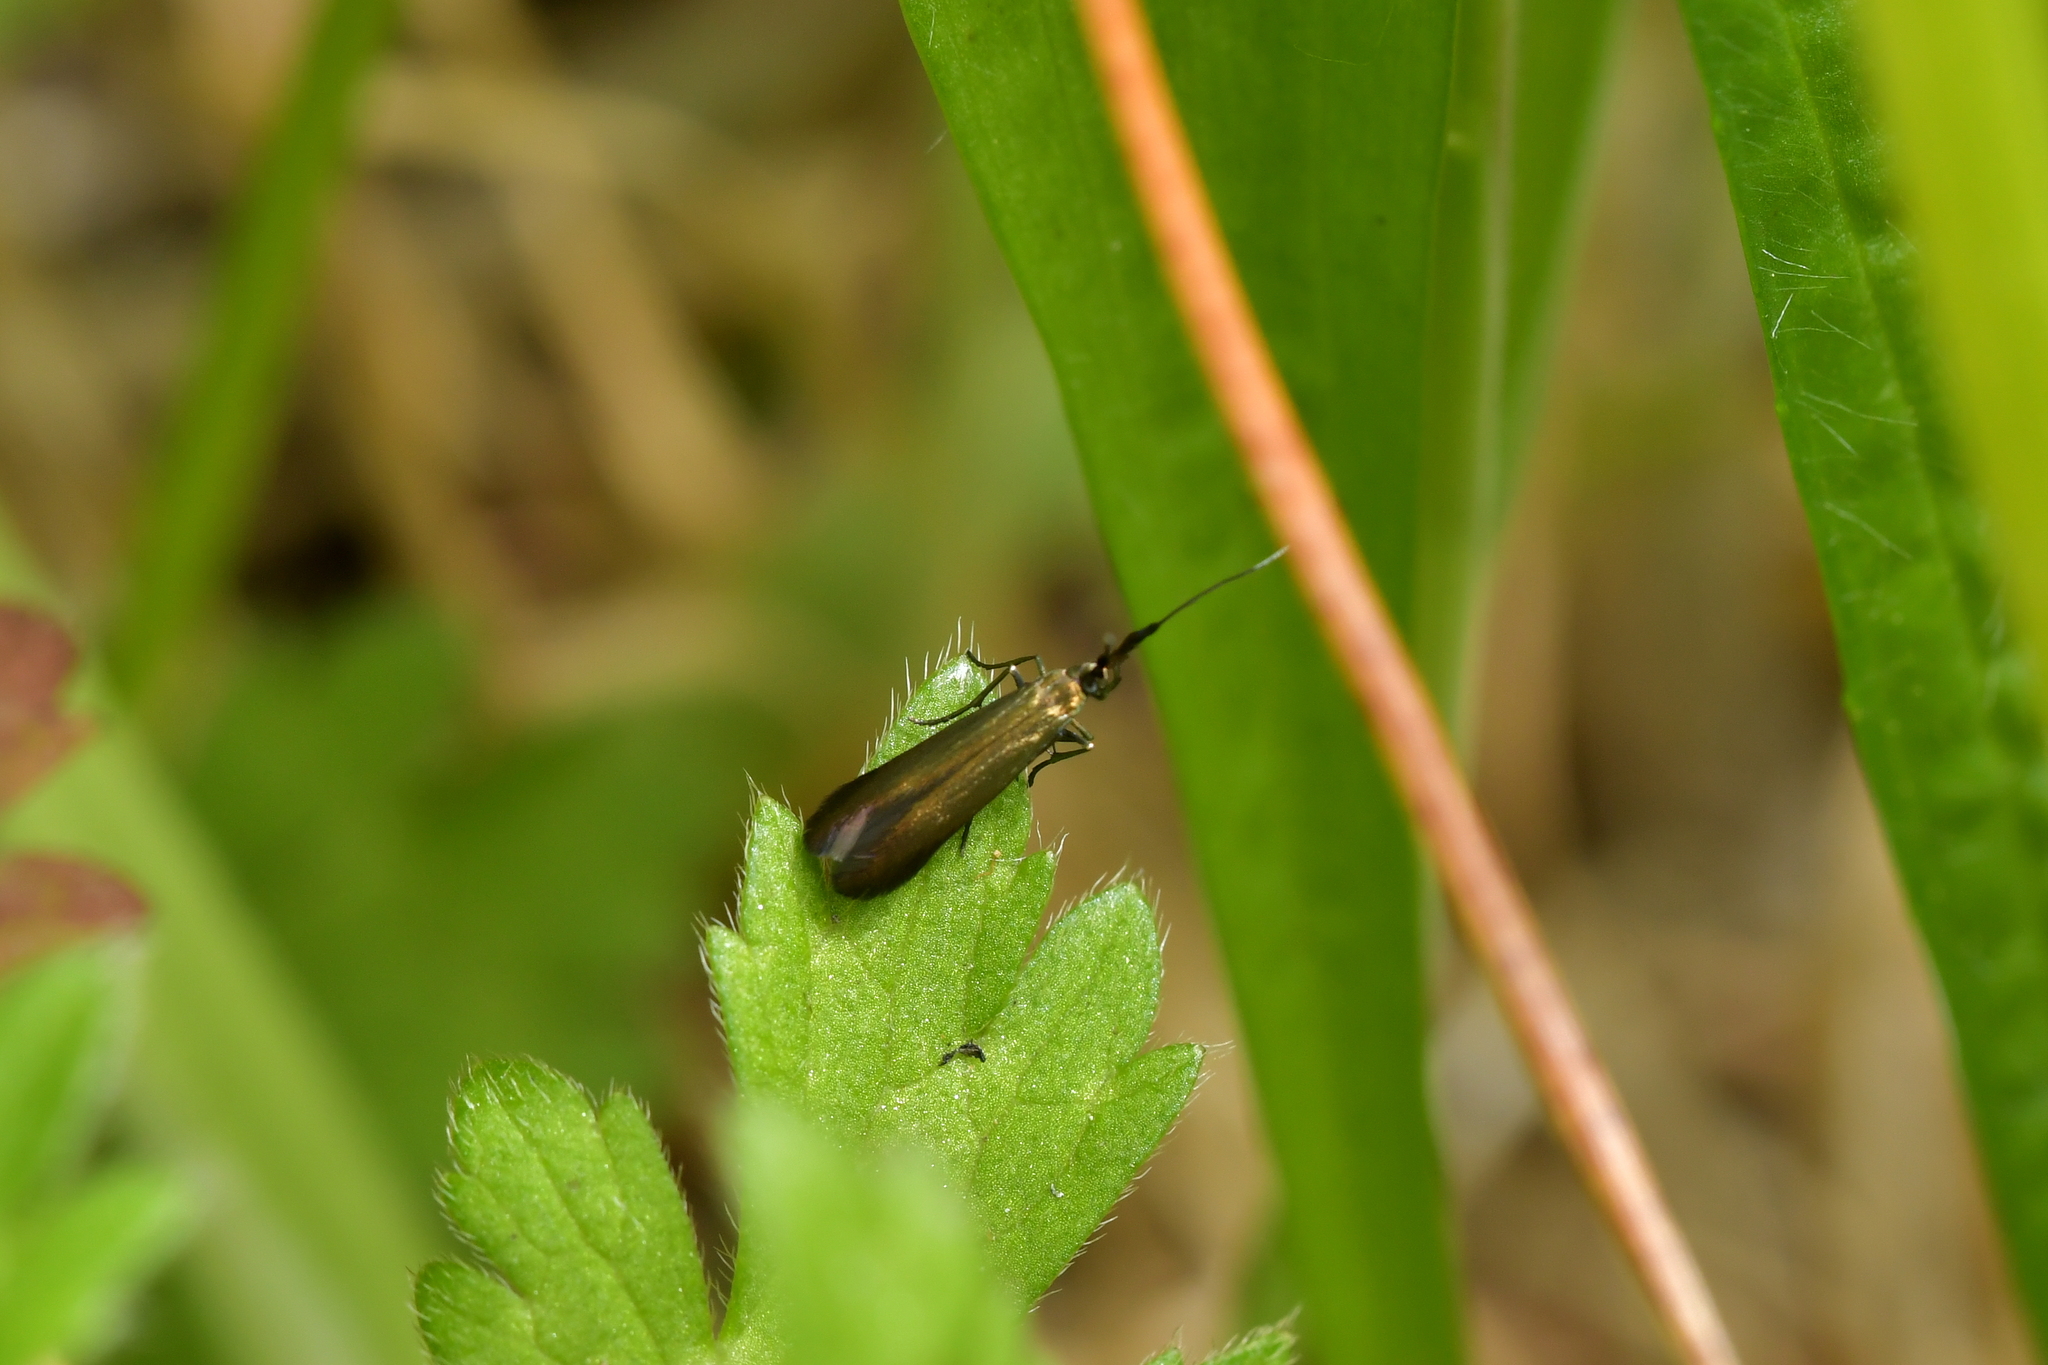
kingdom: Animalia
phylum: Arthropoda
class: Insecta
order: Lepidoptera
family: Coleophoridae
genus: Coleophora
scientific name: Coleophora deauratella
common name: Red-clover case-bearer
